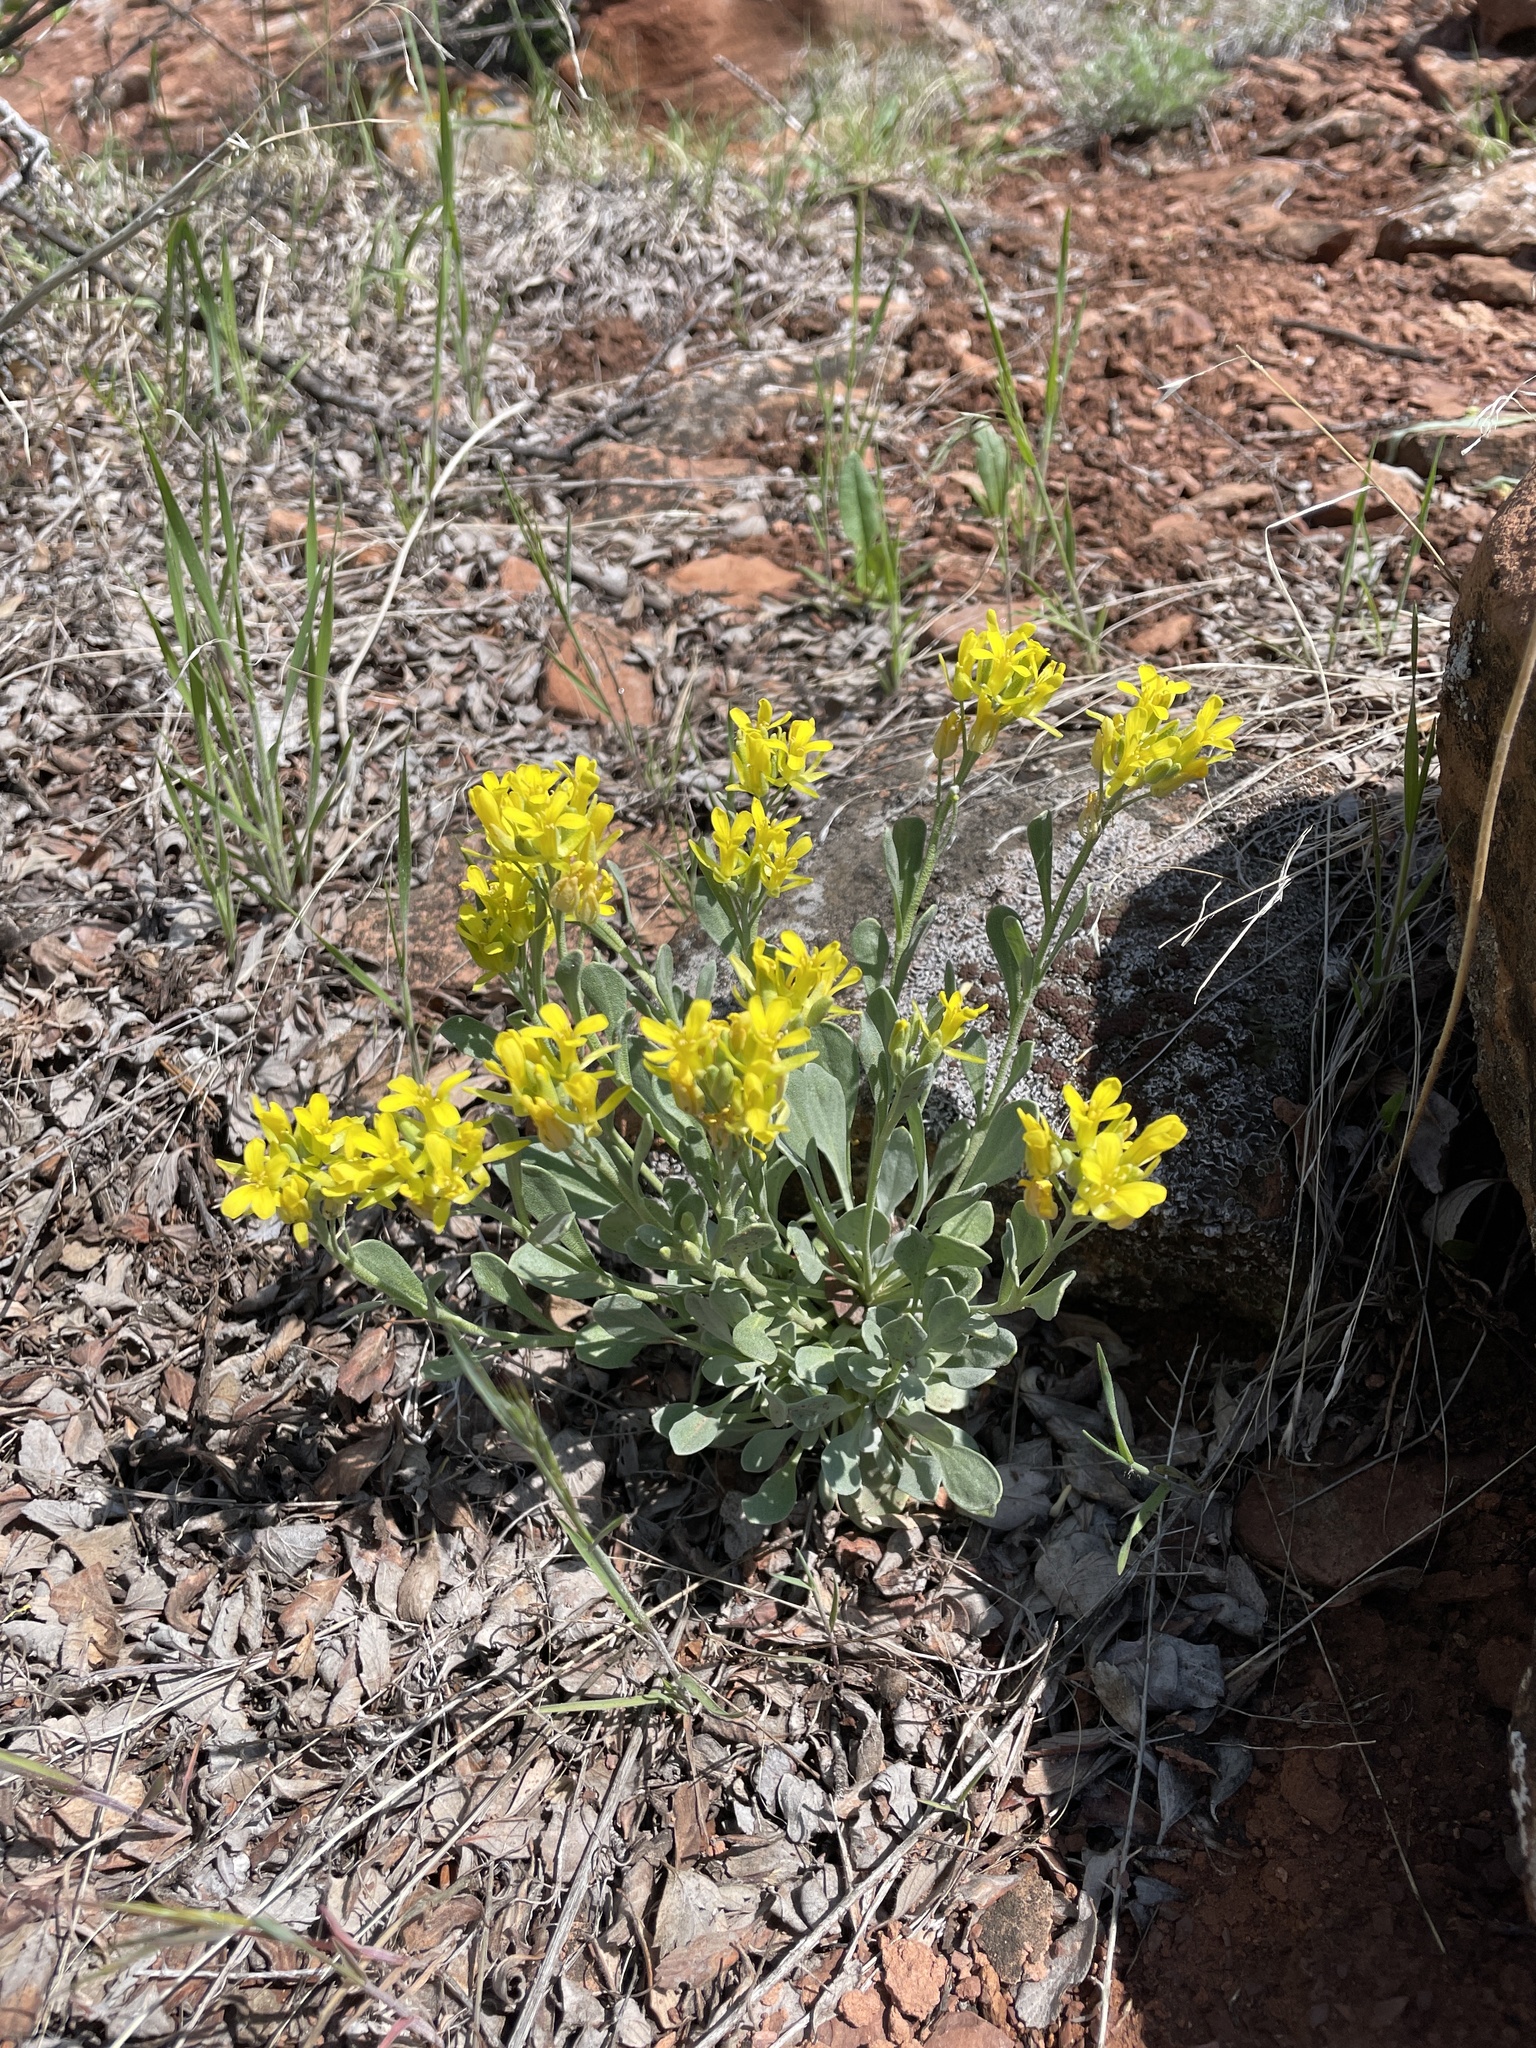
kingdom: Plantae
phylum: Tracheophyta
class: Magnoliopsida
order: Brassicales
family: Brassicaceae
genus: Physaria
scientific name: Physaria bellii
